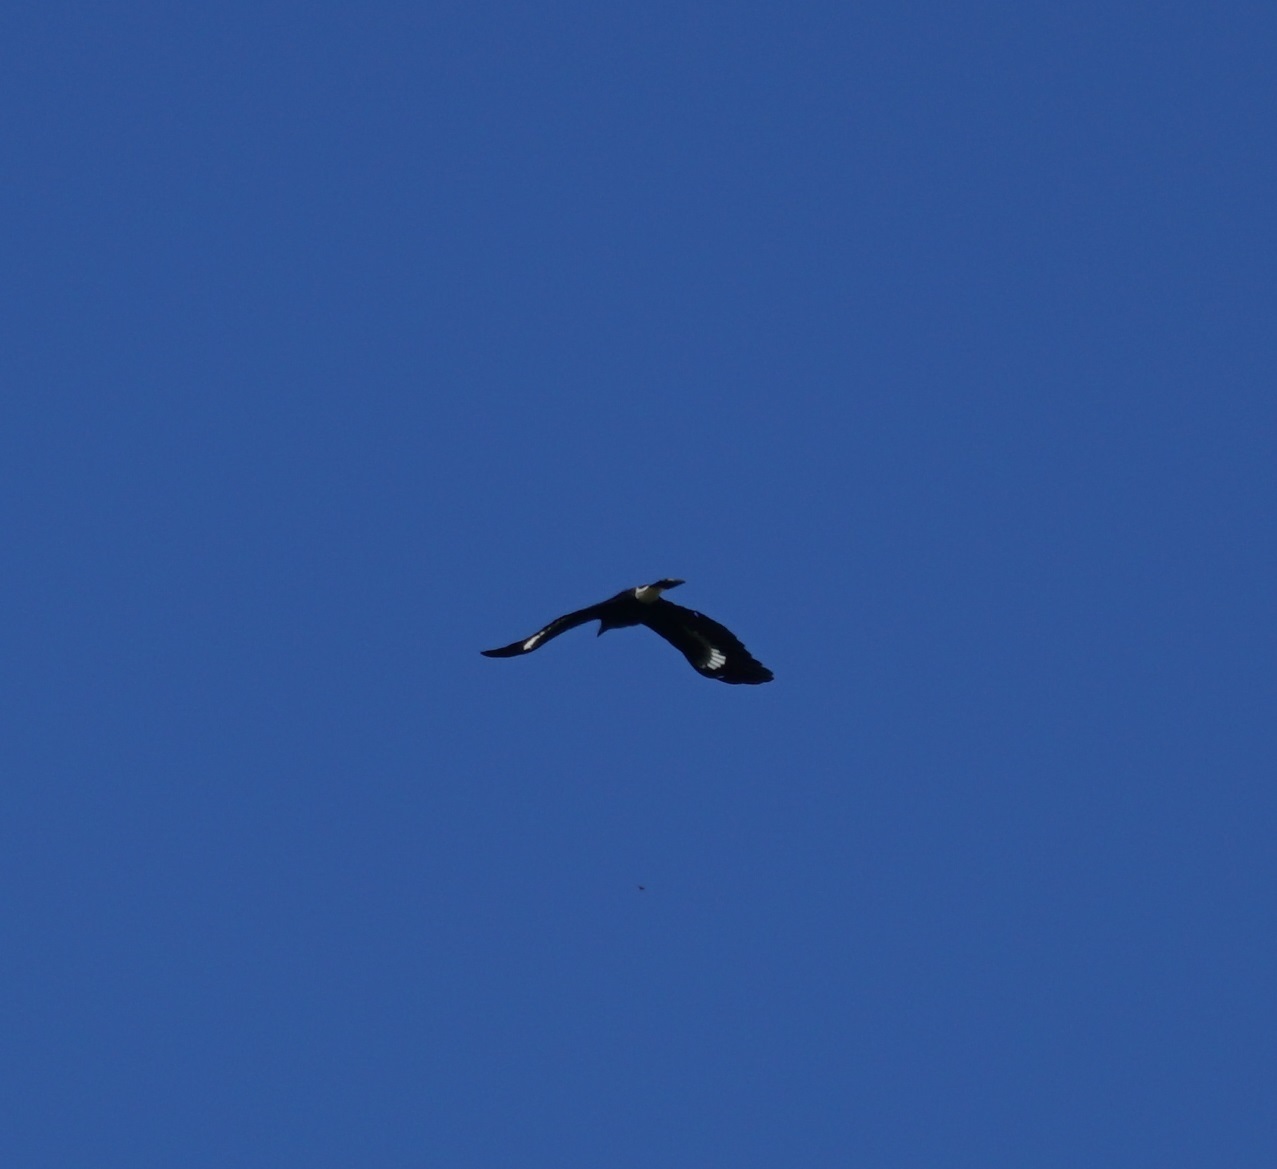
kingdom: Animalia
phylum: Chordata
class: Aves
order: Passeriformes
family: Cracticidae
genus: Strepera
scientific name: Strepera graculina
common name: Pied currawong
